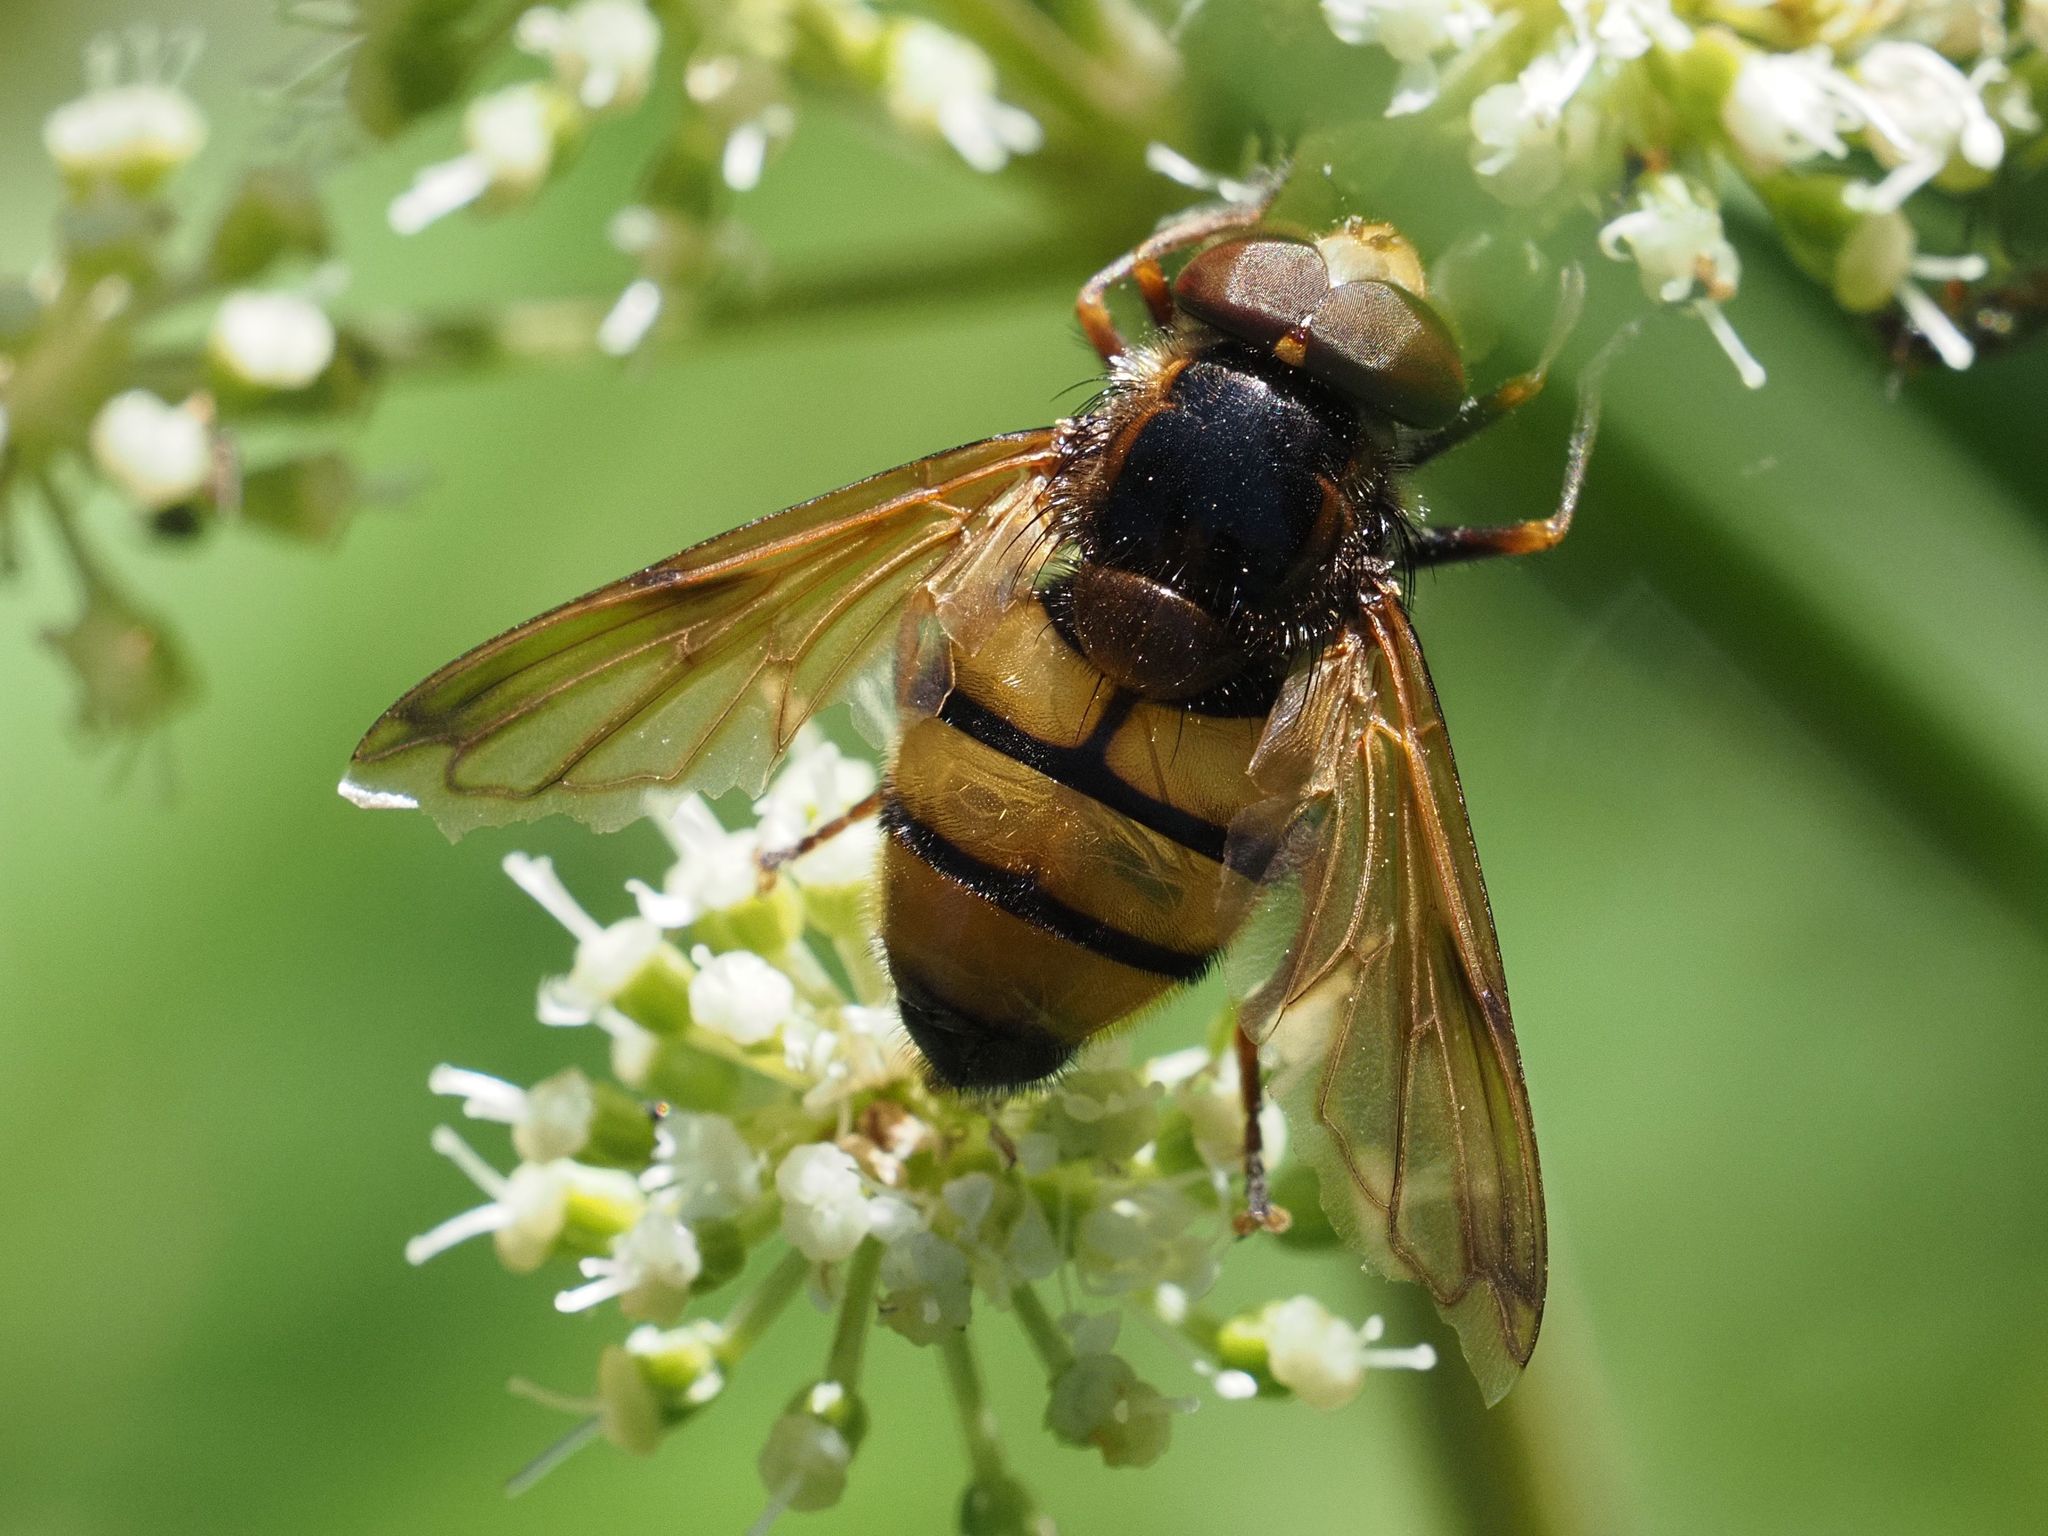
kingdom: Animalia
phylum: Arthropoda
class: Insecta
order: Diptera
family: Syrphidae
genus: Volucella
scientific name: Volucella inanis
